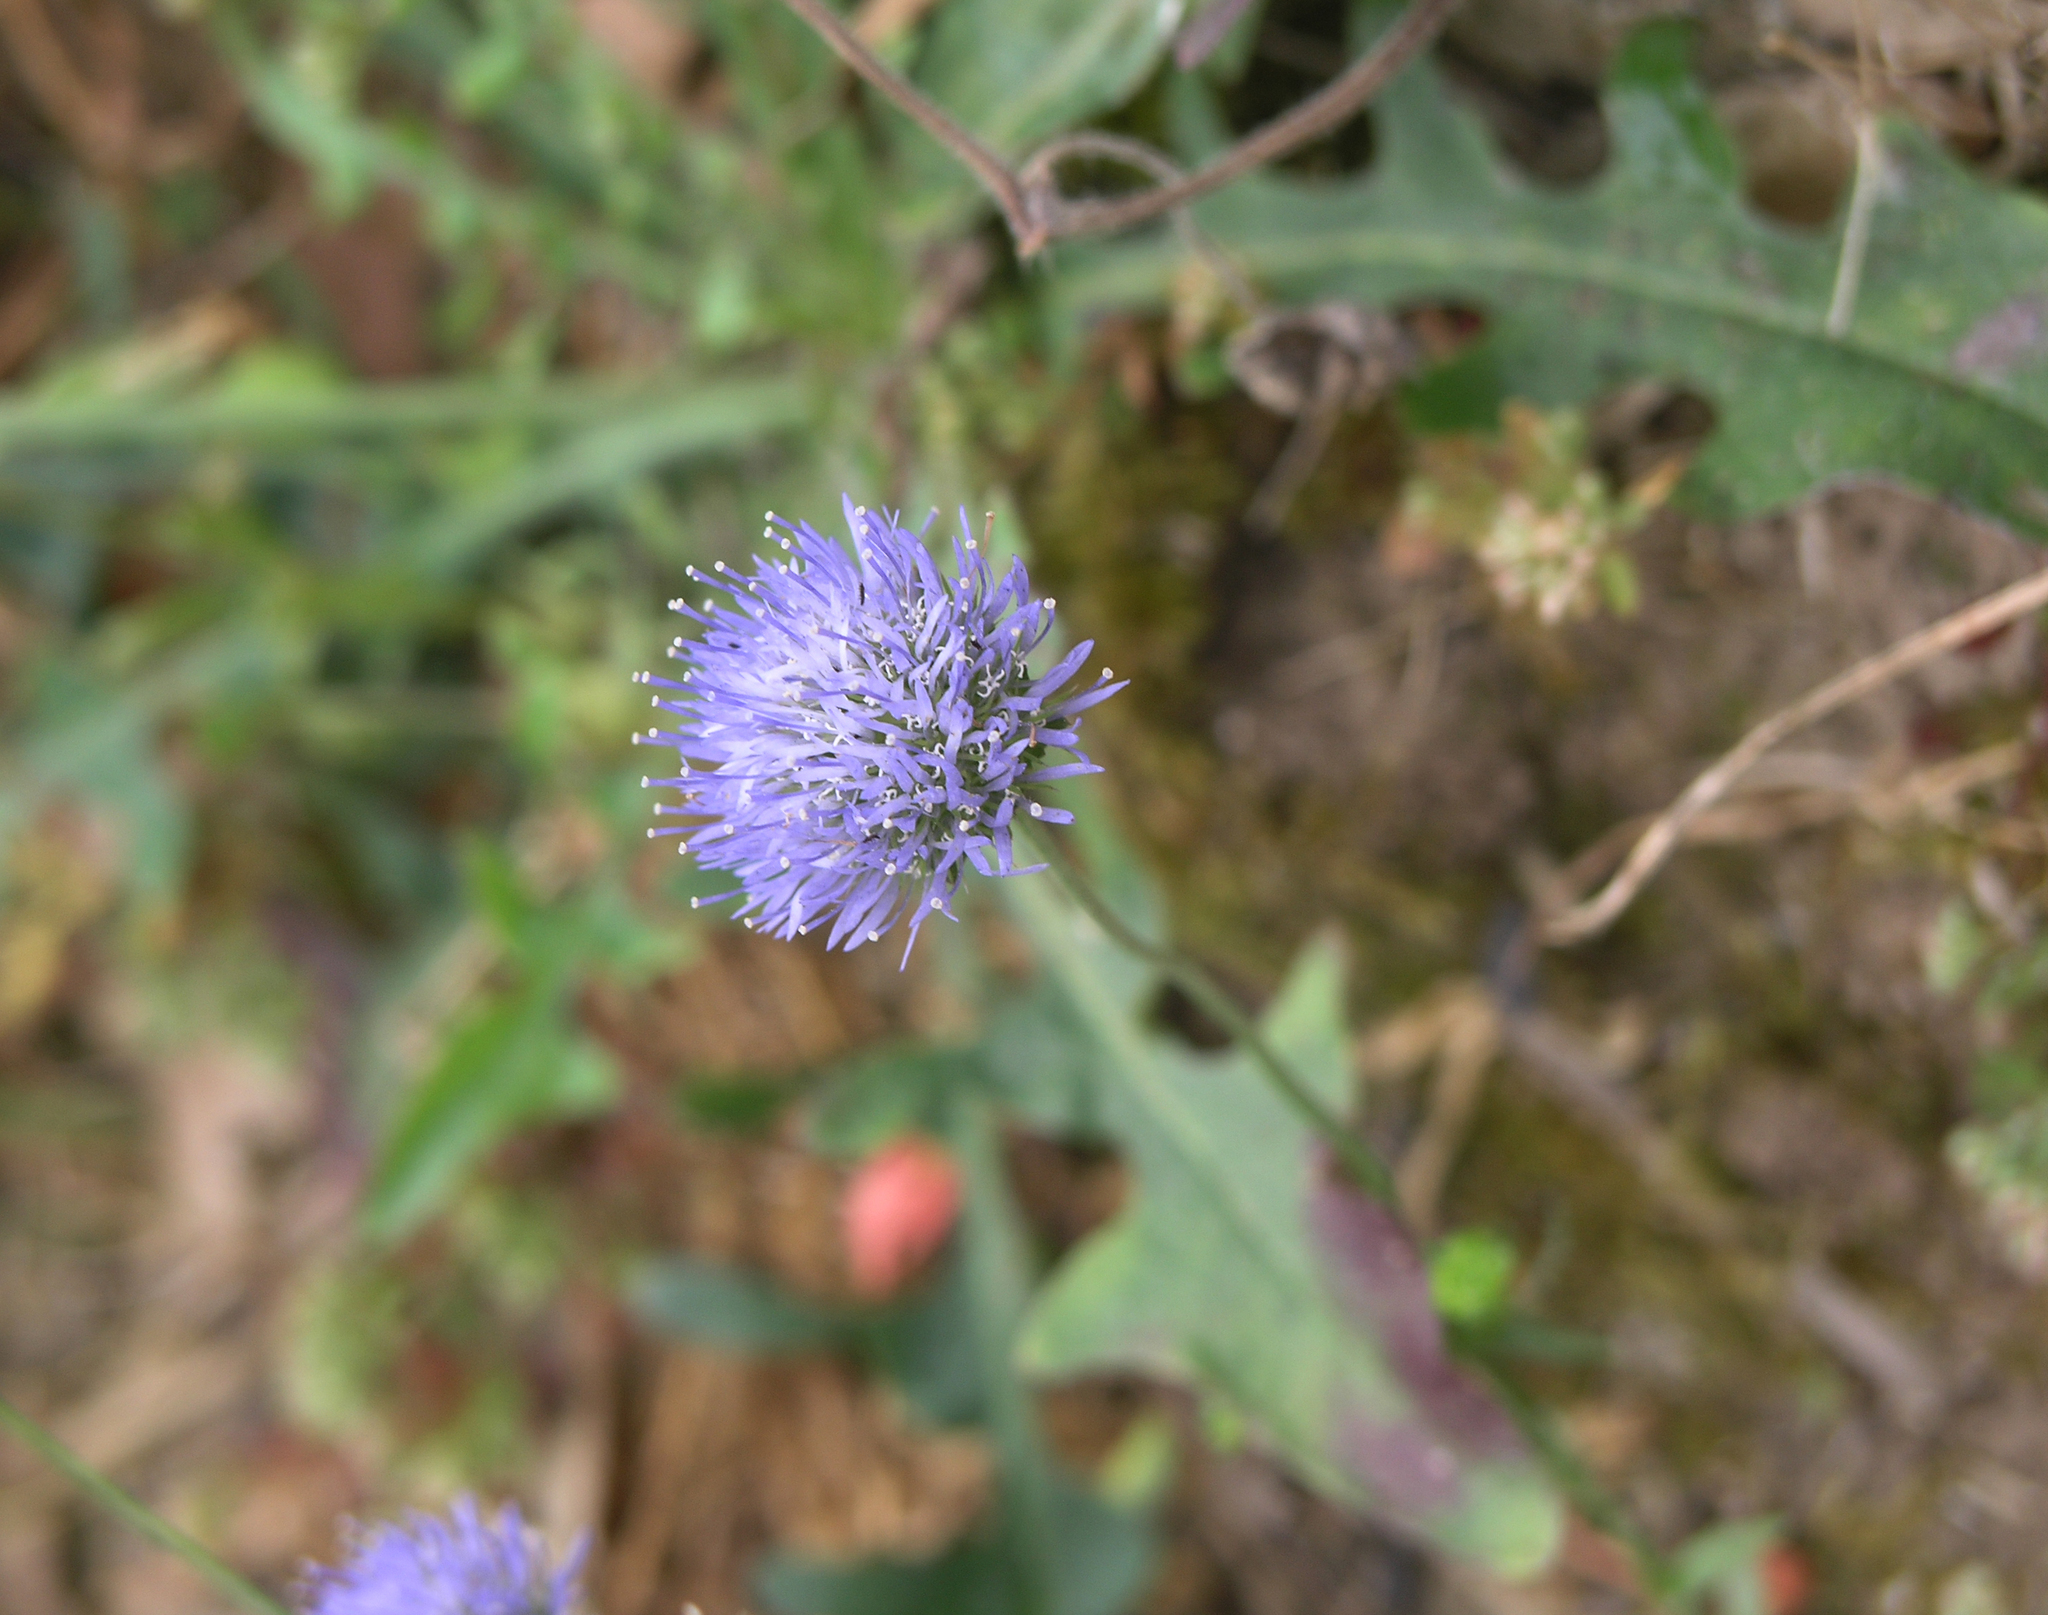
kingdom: Plantae
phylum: Tracheophyta
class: Magnoliopsida
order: Asterales
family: Campanulaceae
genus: Jasione
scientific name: Jasione montana
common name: Sheep's-bit
